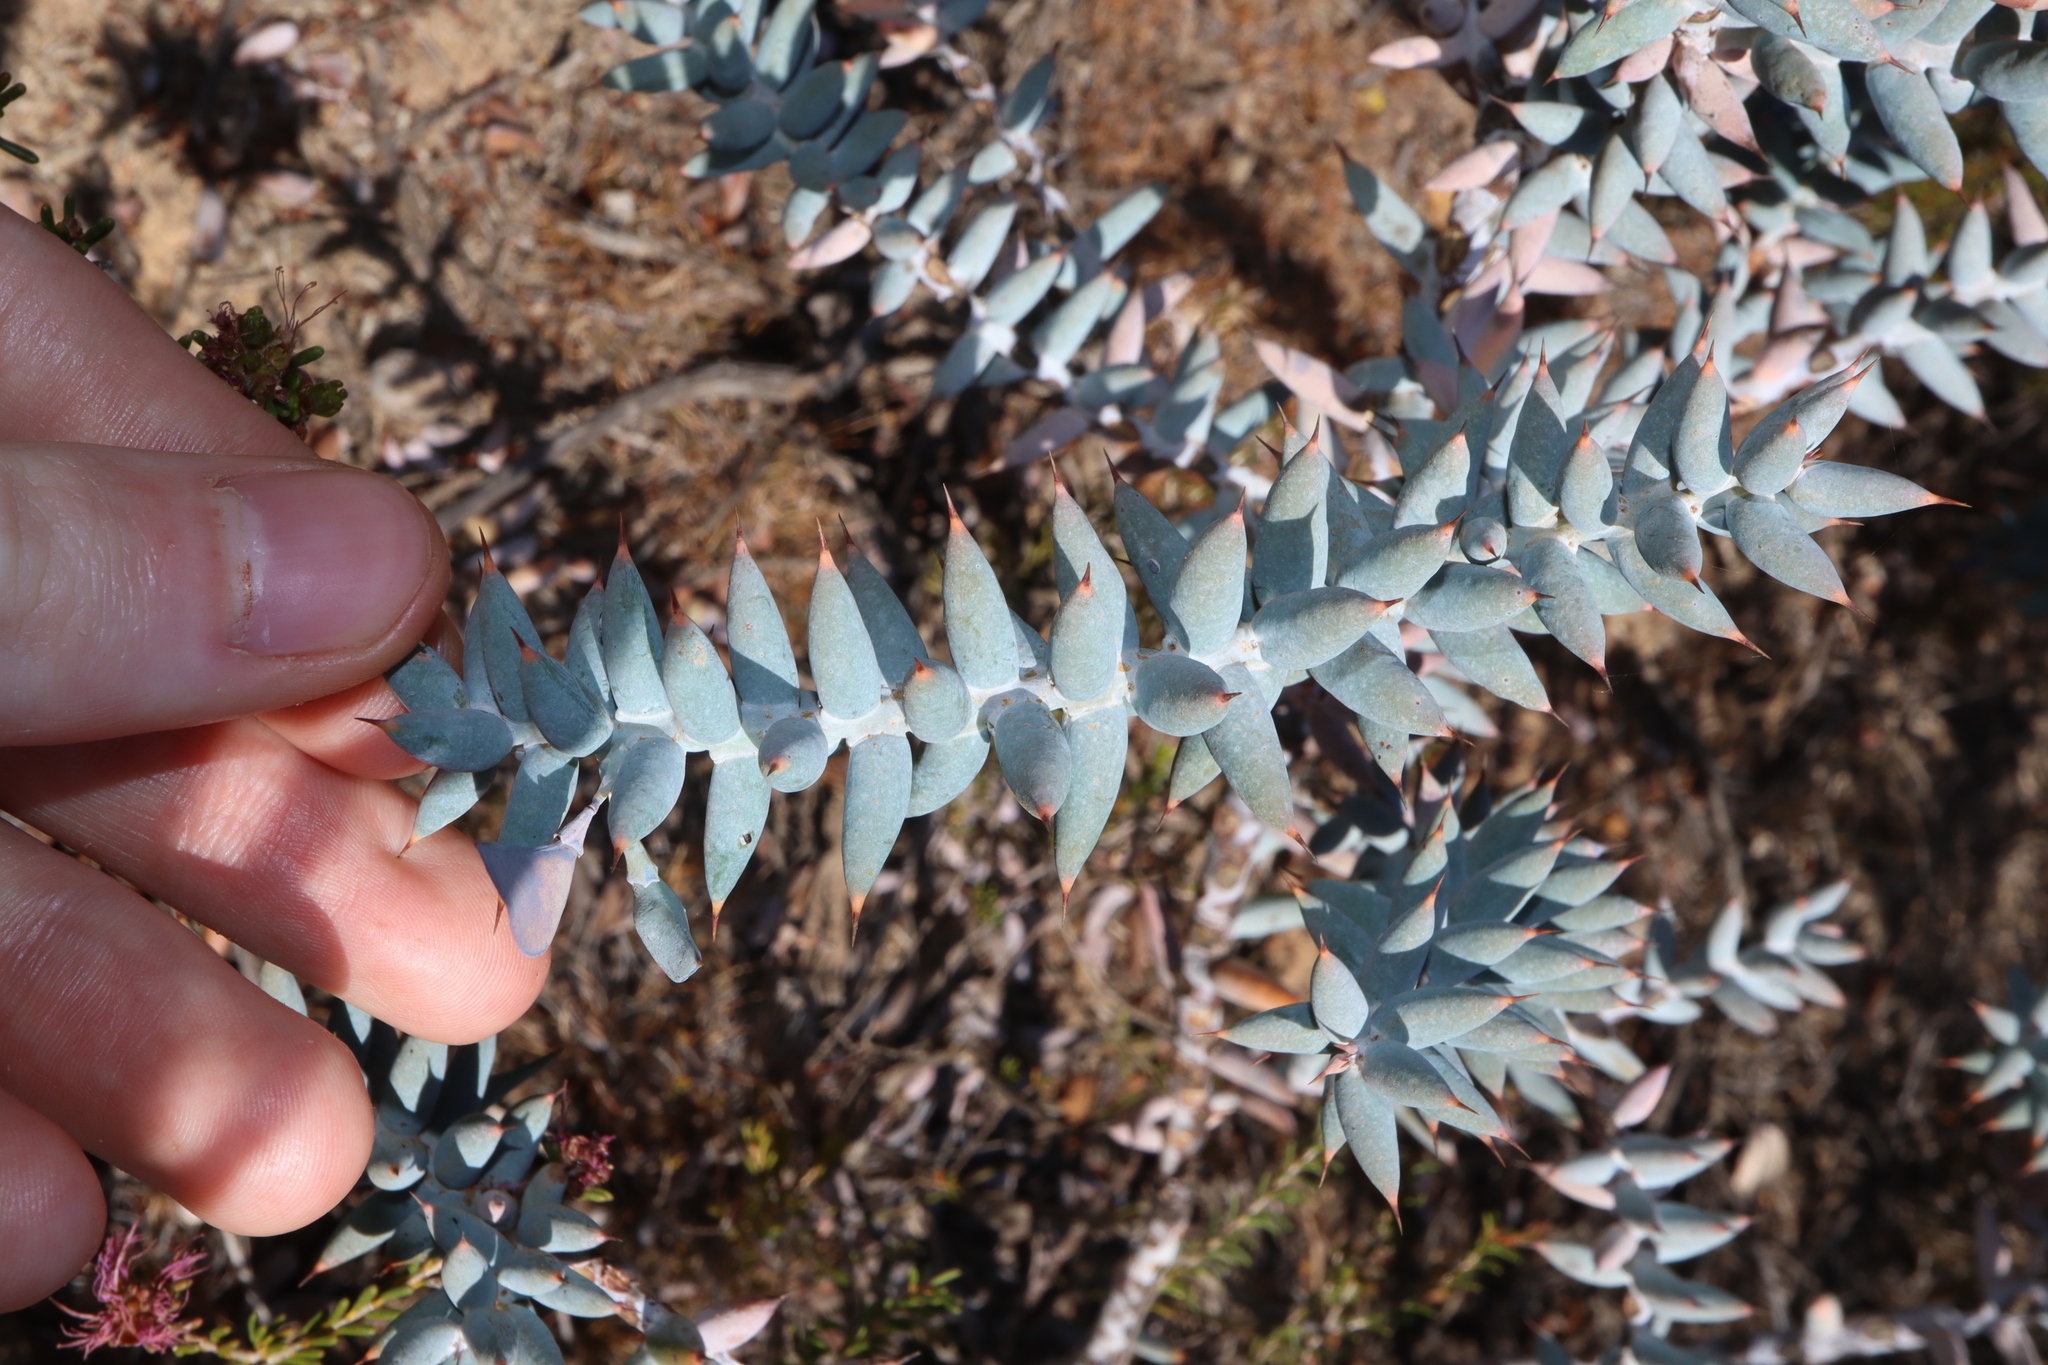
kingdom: Plantae
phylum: Tracheophyta
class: Magnoliopsida
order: Fabales
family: Fabaceae
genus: Daviesia
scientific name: Daviesia pachyphylla
